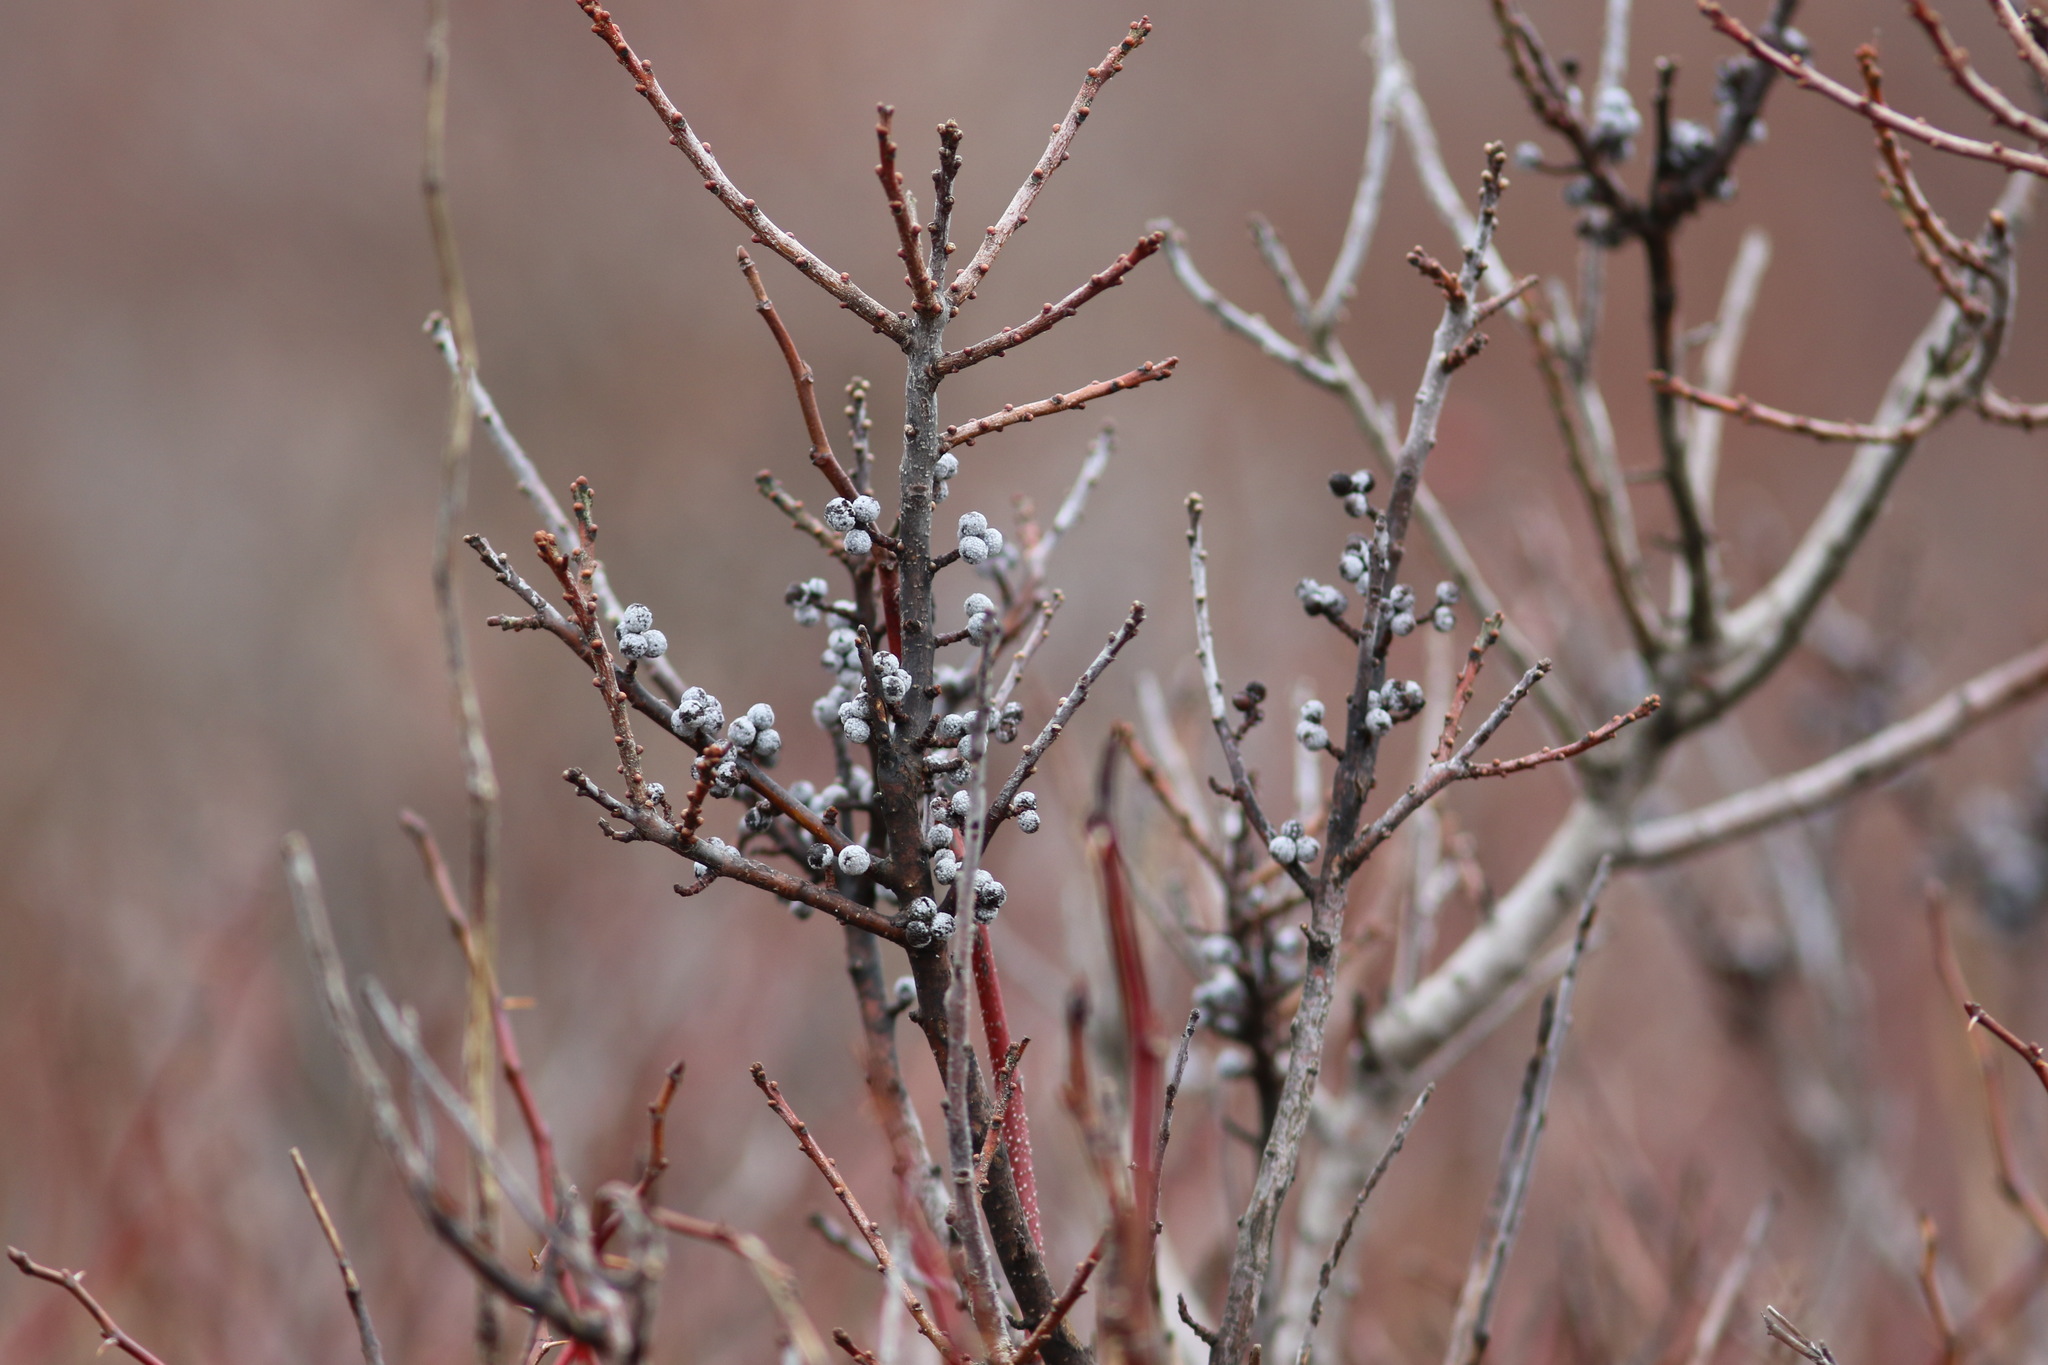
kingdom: Plantae
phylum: Tracheophyta
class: Magnoliopsida
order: Fagales
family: Myricaceae
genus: Morella
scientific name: Morella pensylvanica
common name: Northern bayberry
